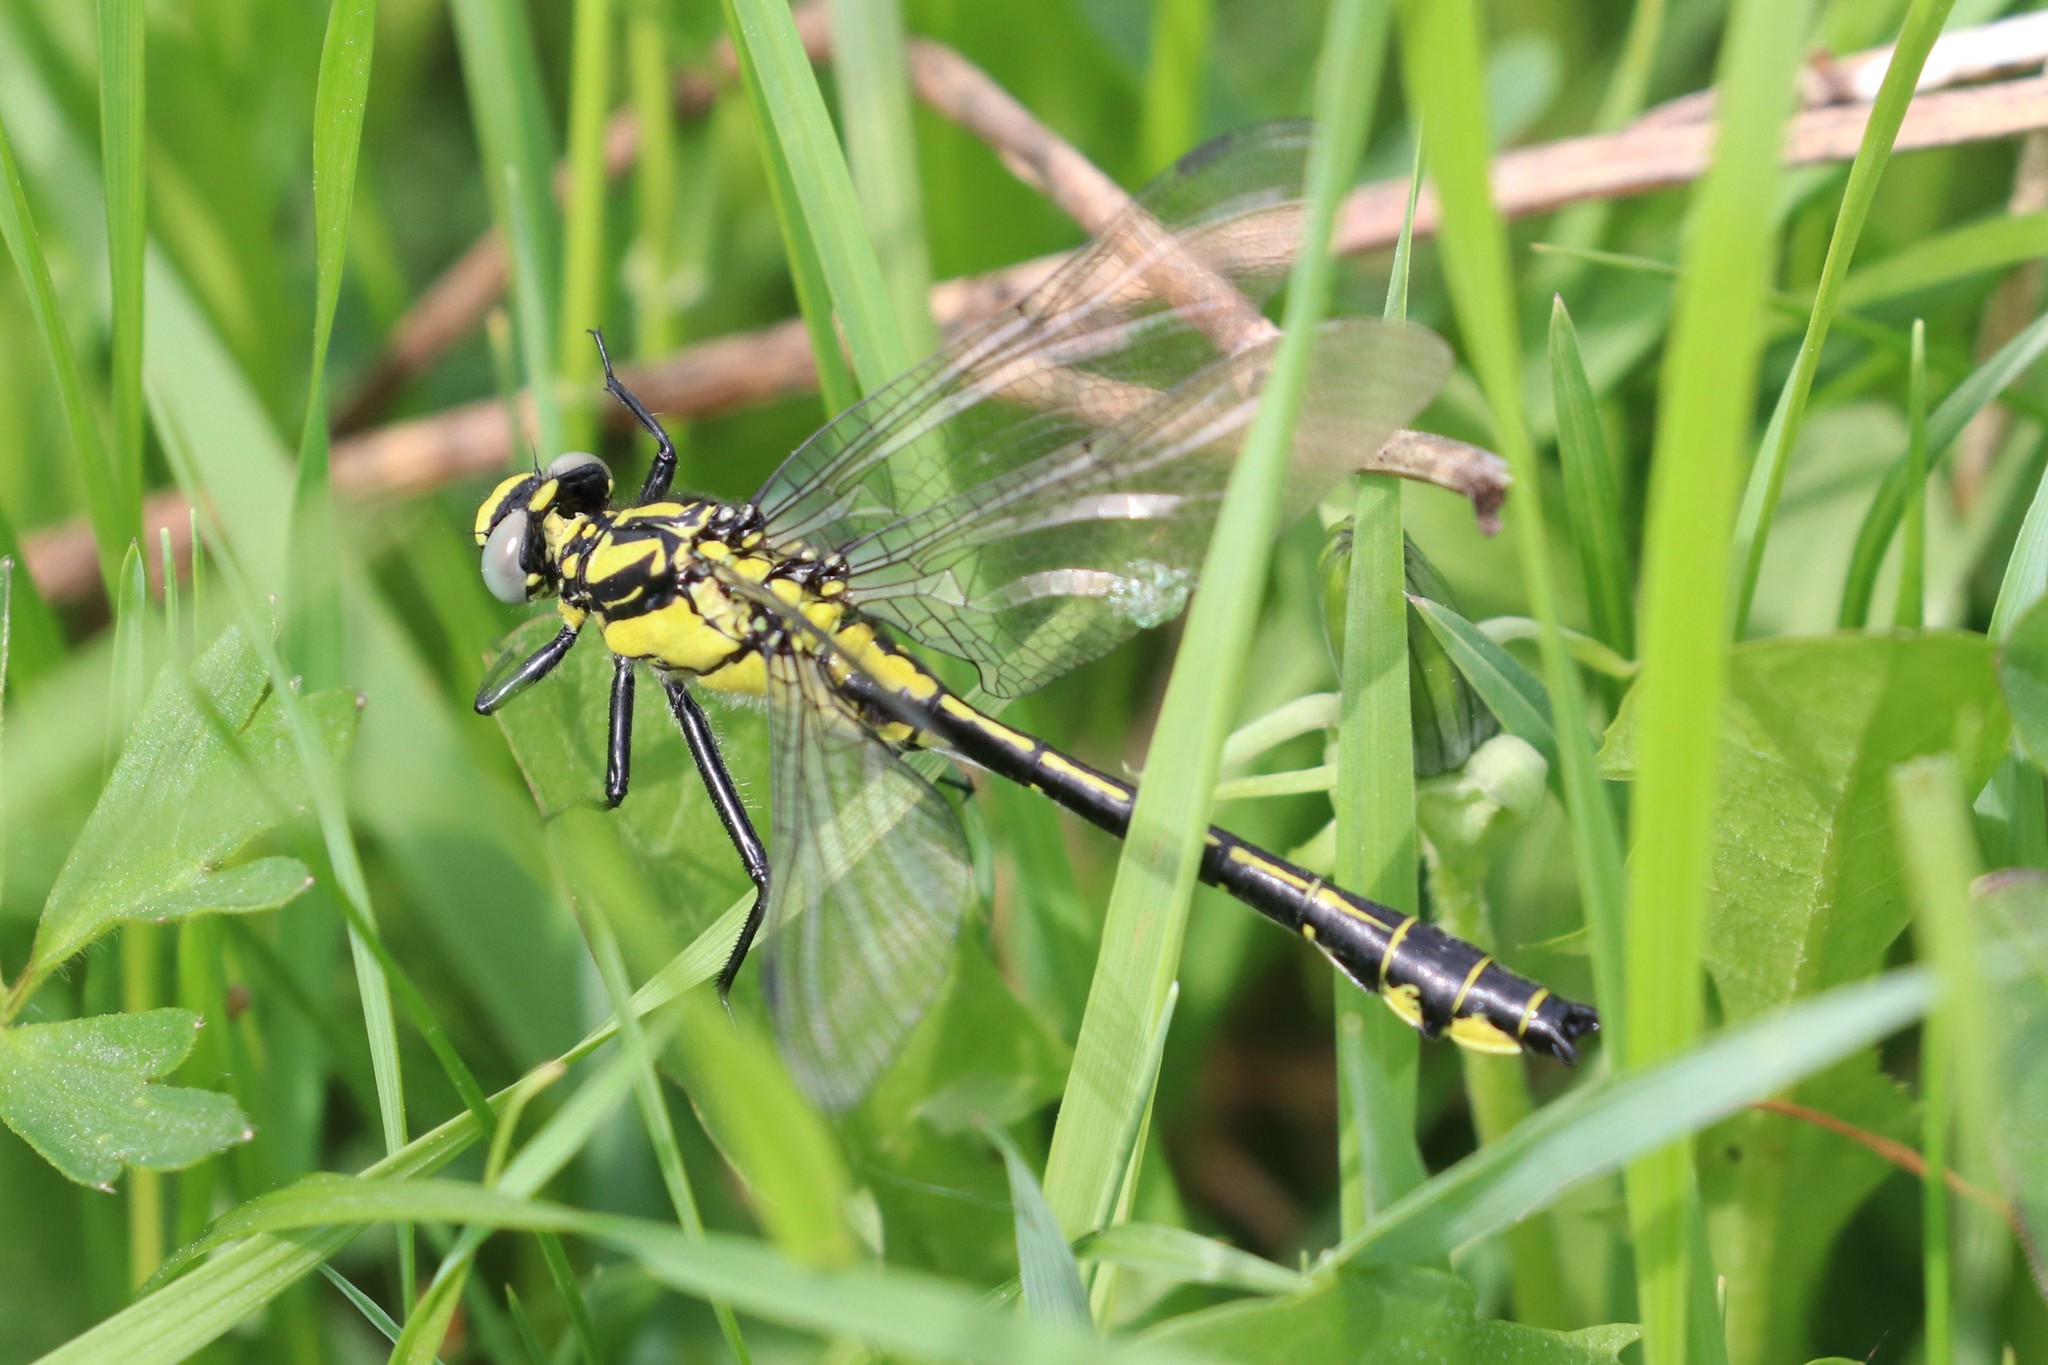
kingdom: Animalia
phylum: Arthropoda
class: Insecta
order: Odonata
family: Gomphidae
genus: Gomphus
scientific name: Gomphus vulgatissimus
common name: Club-tailed dragonfly
